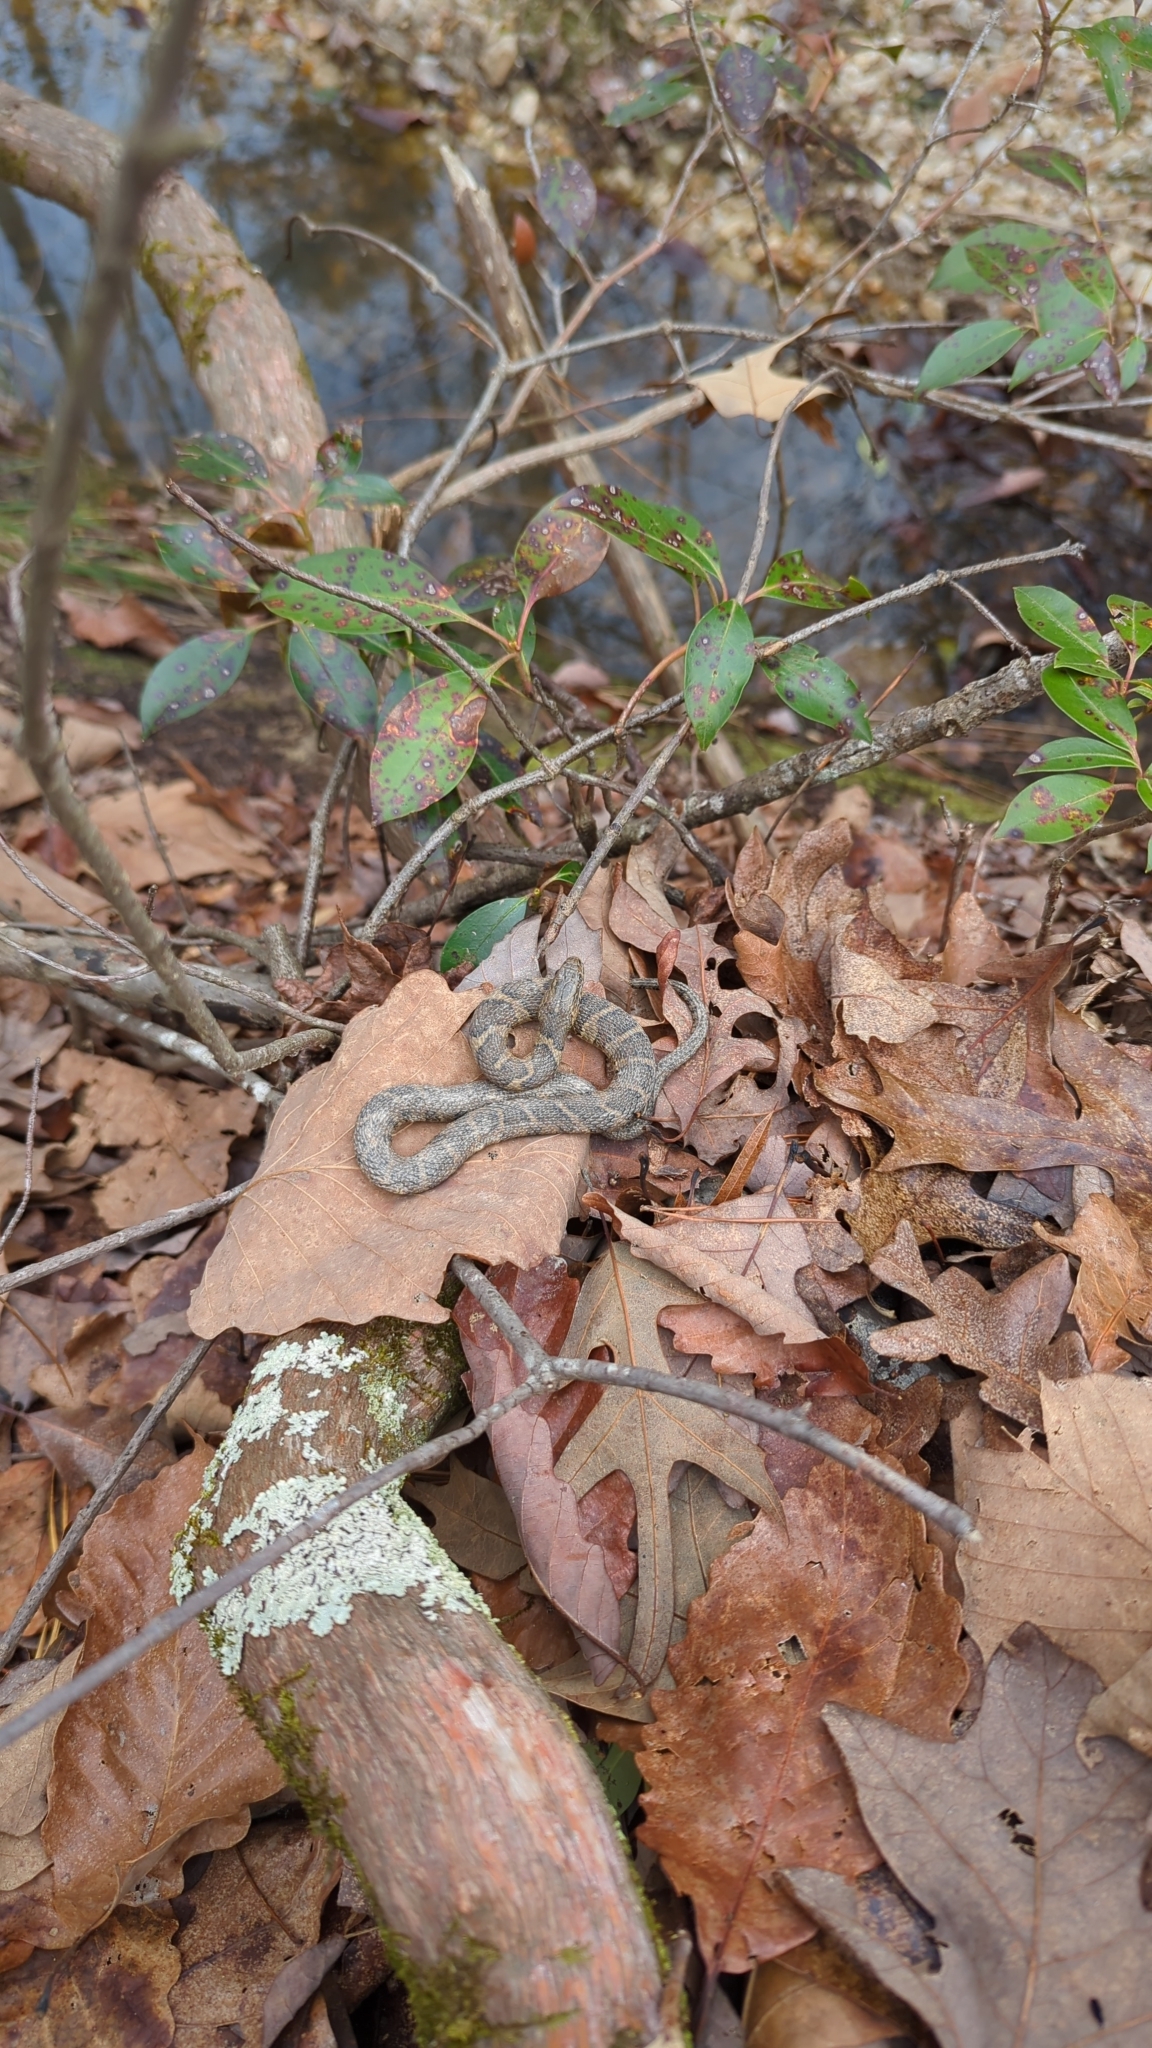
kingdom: Animalia
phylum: Chordata
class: Squamata
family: Colubridae
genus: Nerodia
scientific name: Nerodia sipedon
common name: Northern water snake
